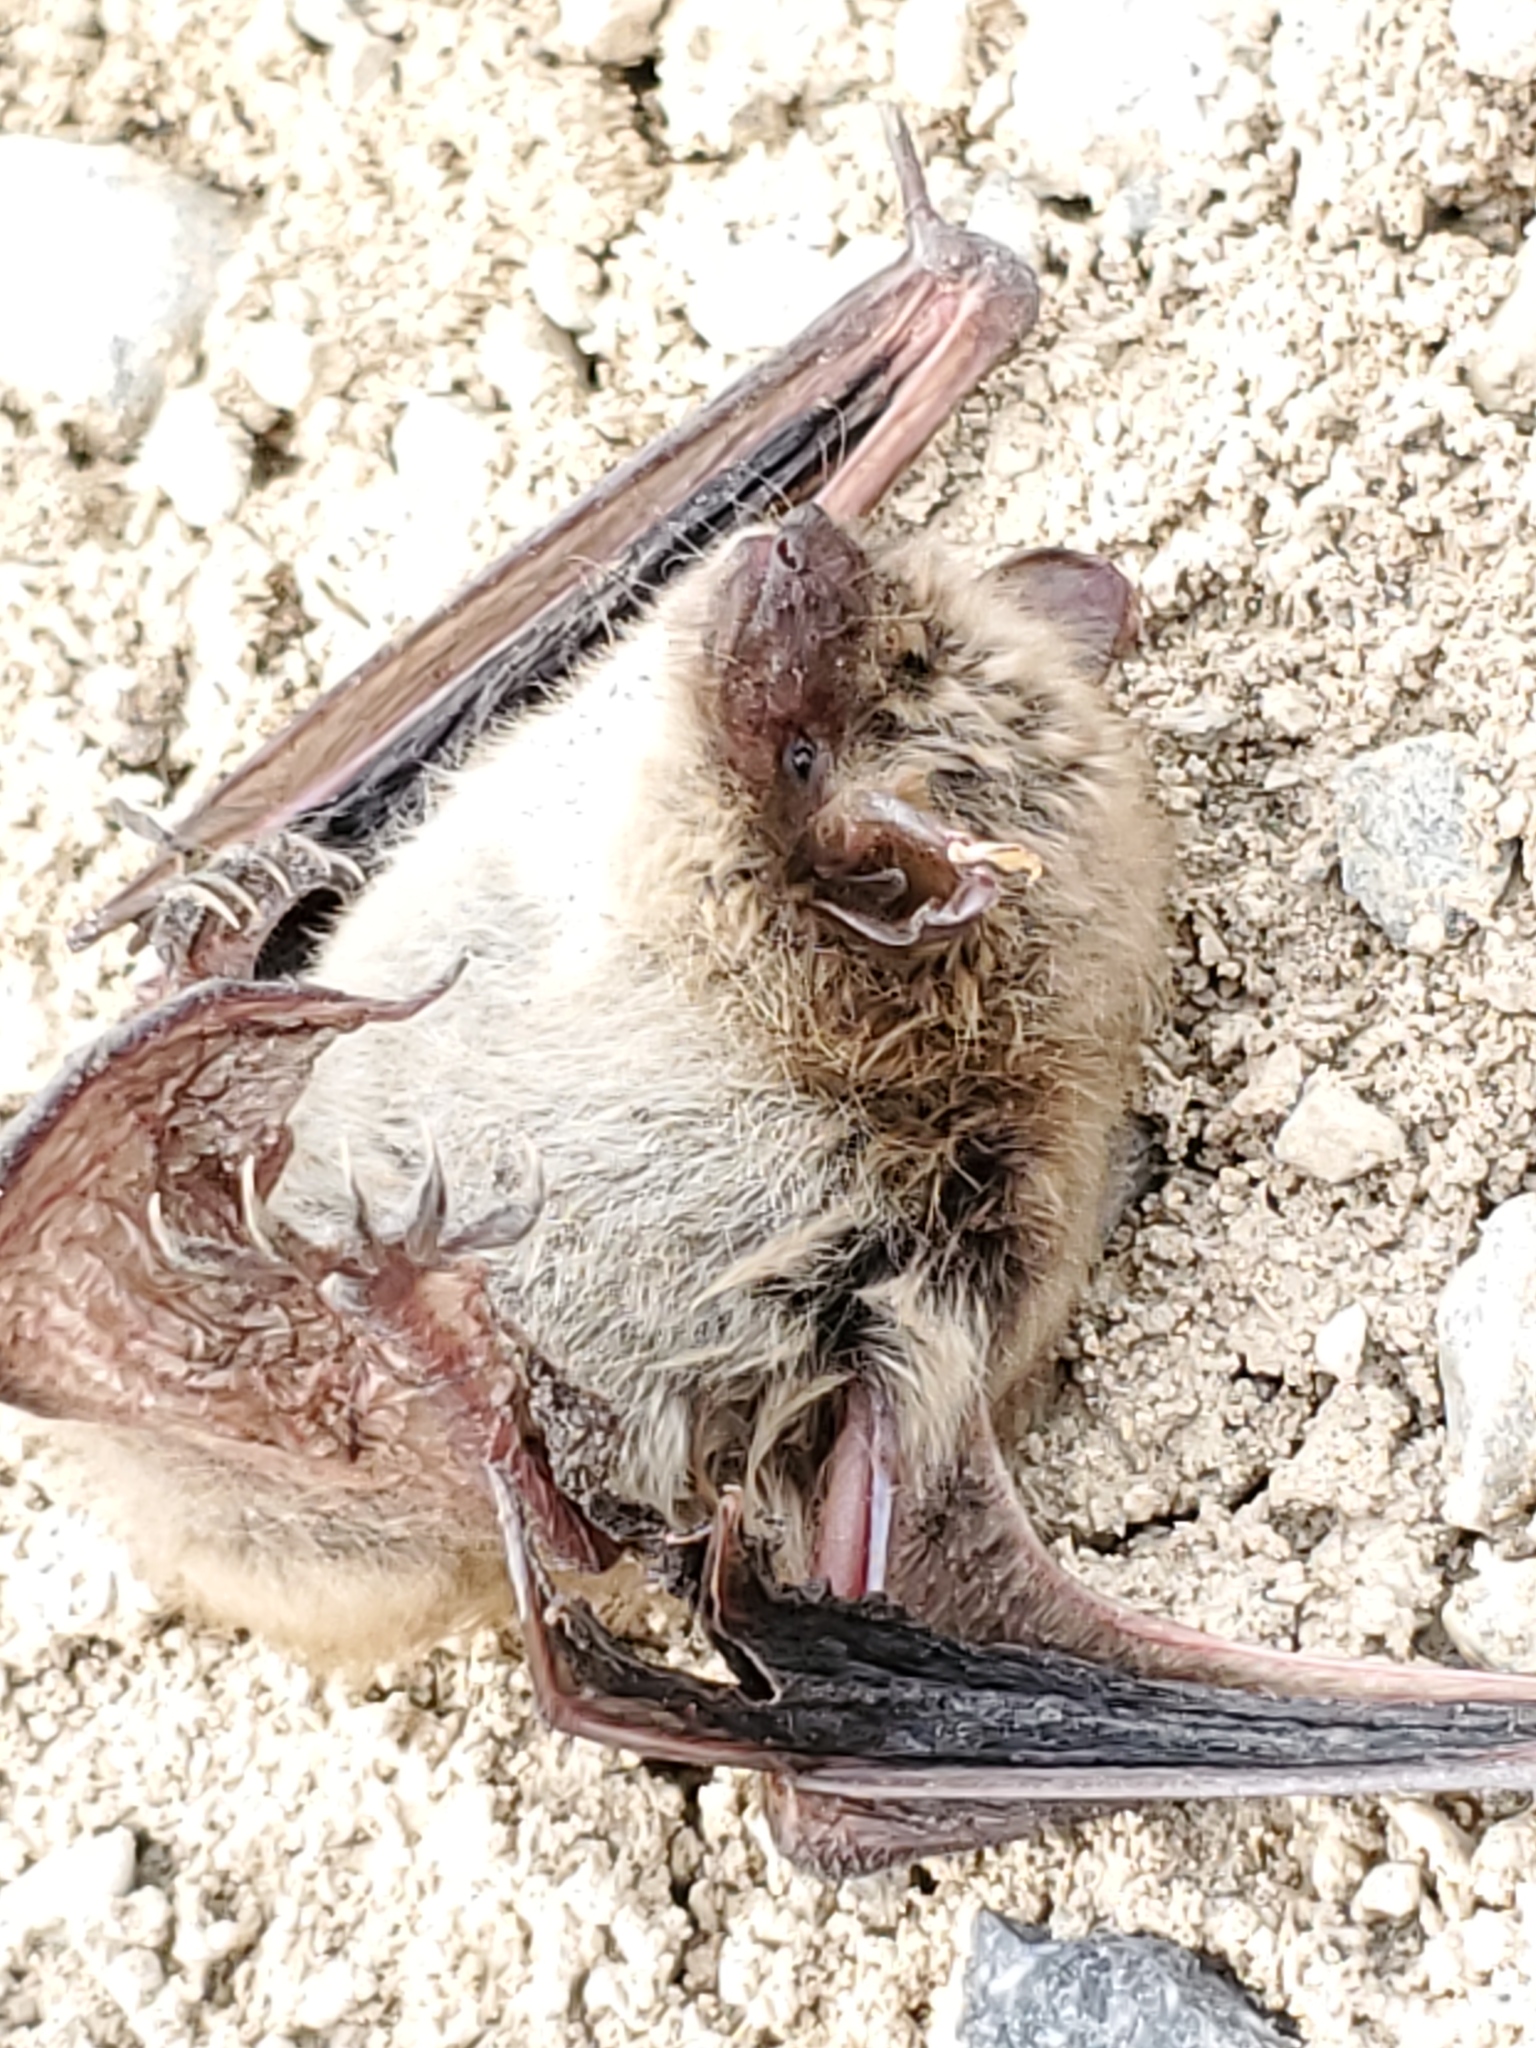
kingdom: Animalia
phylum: Chordata
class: Mammalia
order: Chiroptera
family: Vespertilionidae
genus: Myotis
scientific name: Myotis lucifugus
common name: Little brown bat
